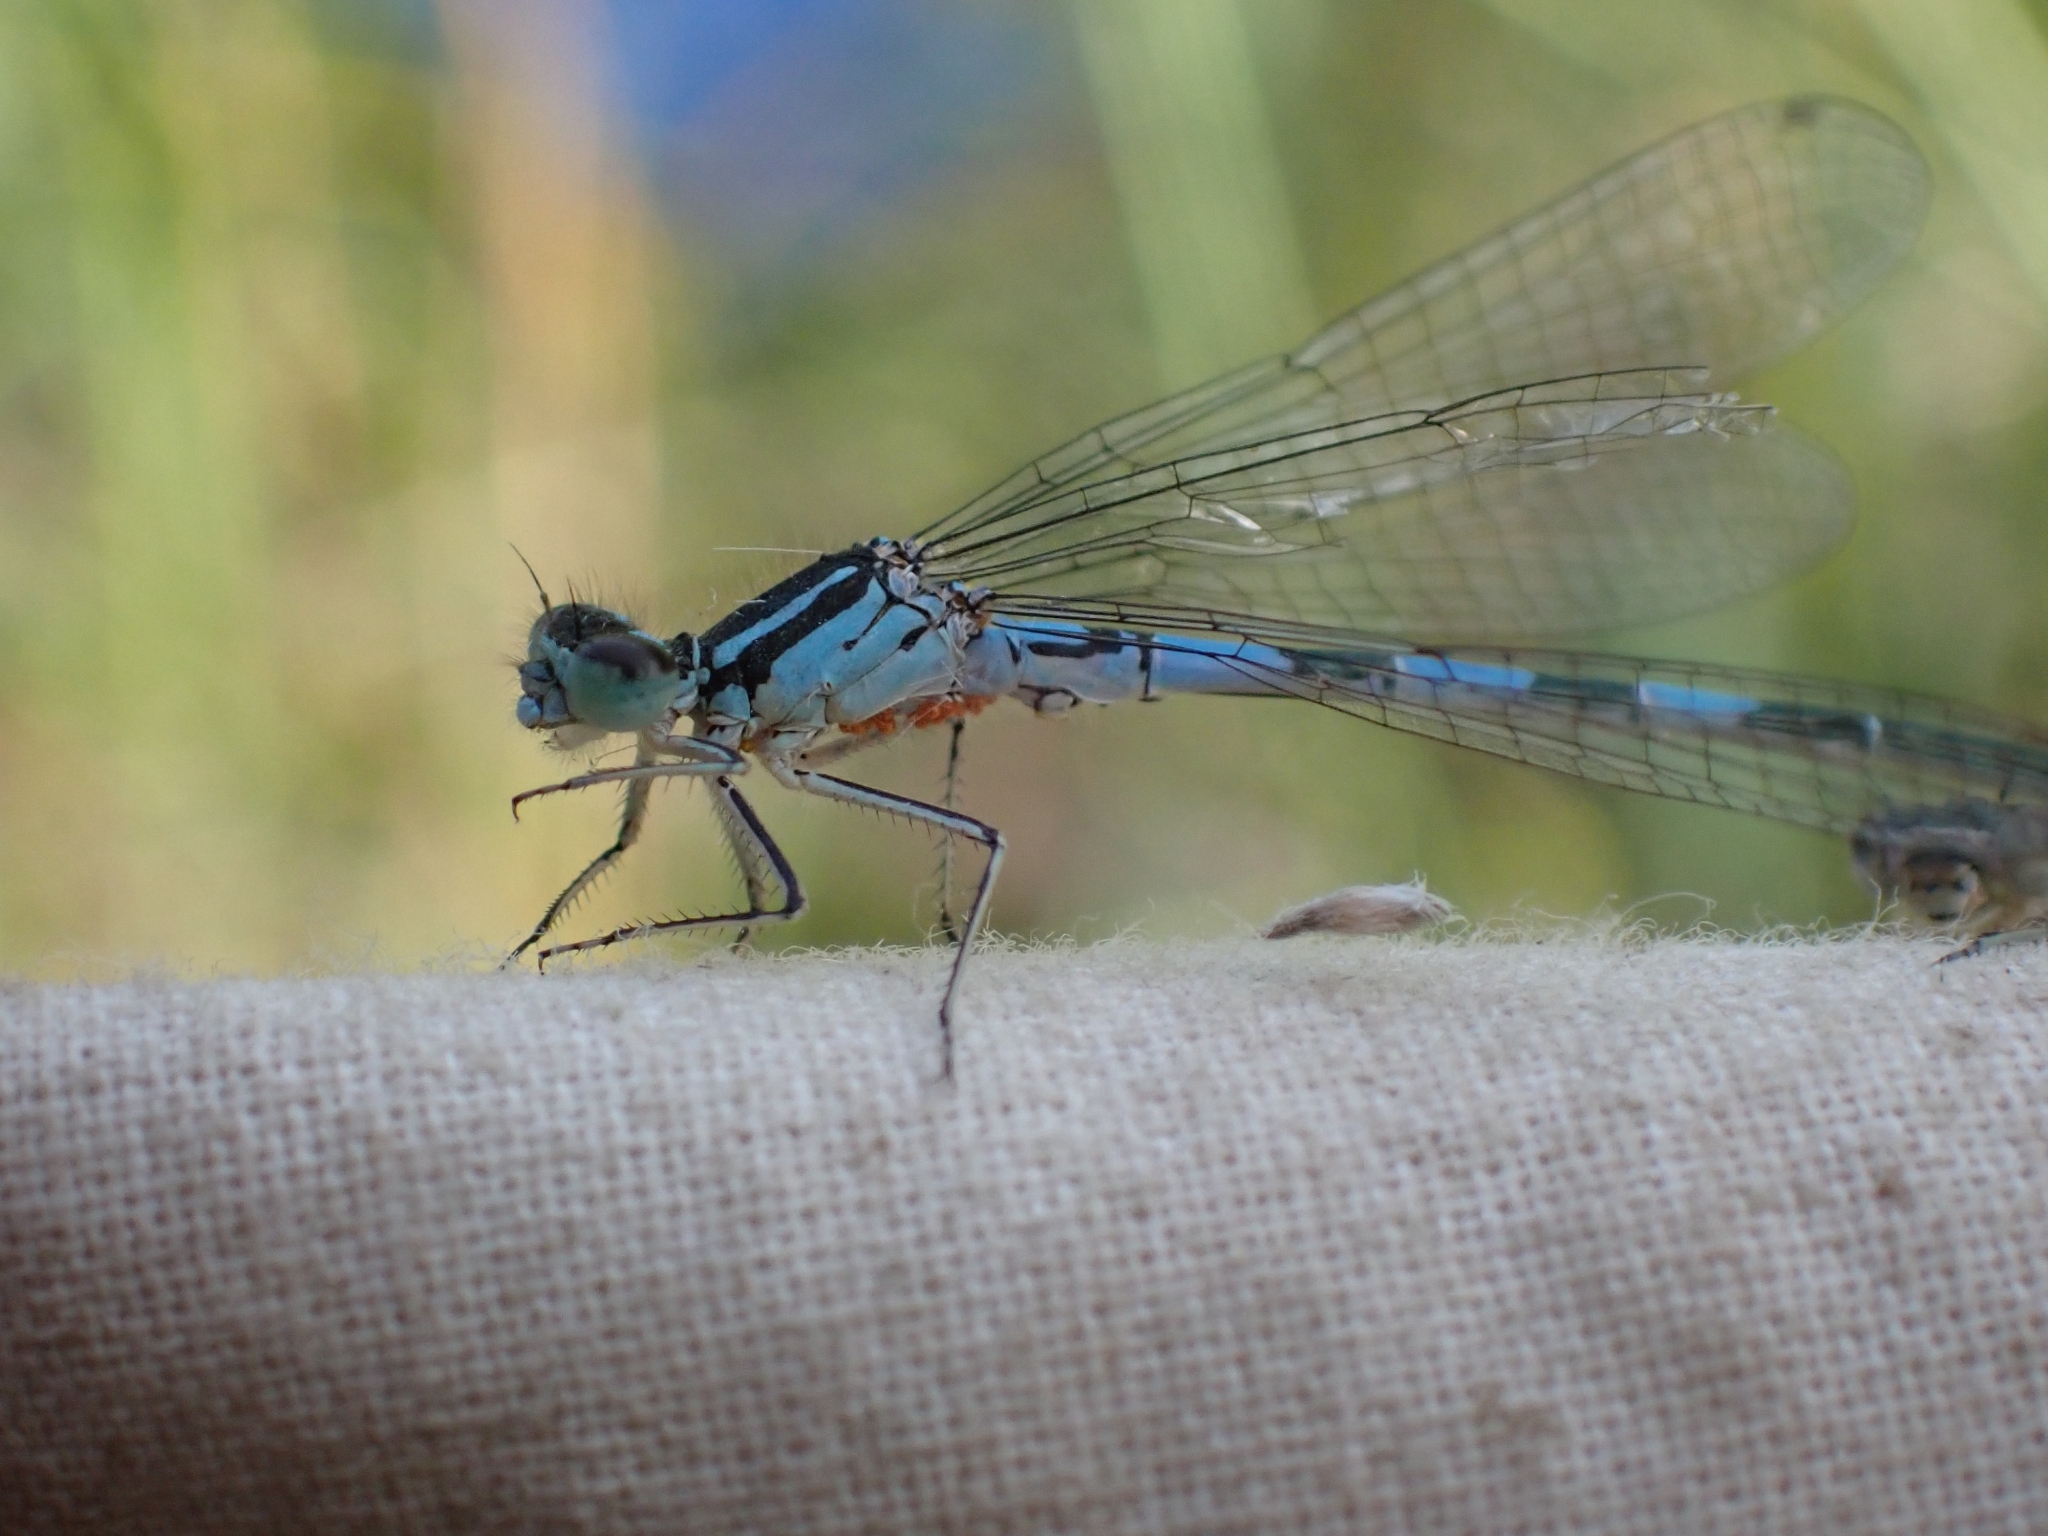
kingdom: Animalia
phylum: Arthropoda
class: Insecta
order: Odonata
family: Coenagrionidae
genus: Coenagrion
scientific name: Coenagrion resolutum
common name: Taiga bluet
